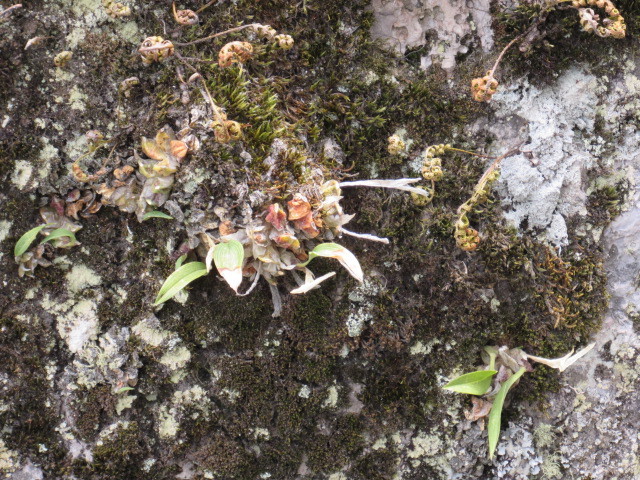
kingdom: Plantae
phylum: Tracheophyta
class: Liliopsida
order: Asparagales
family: Orchidaceae
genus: Rhynchostele
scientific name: Rhynchostele cervantesii
